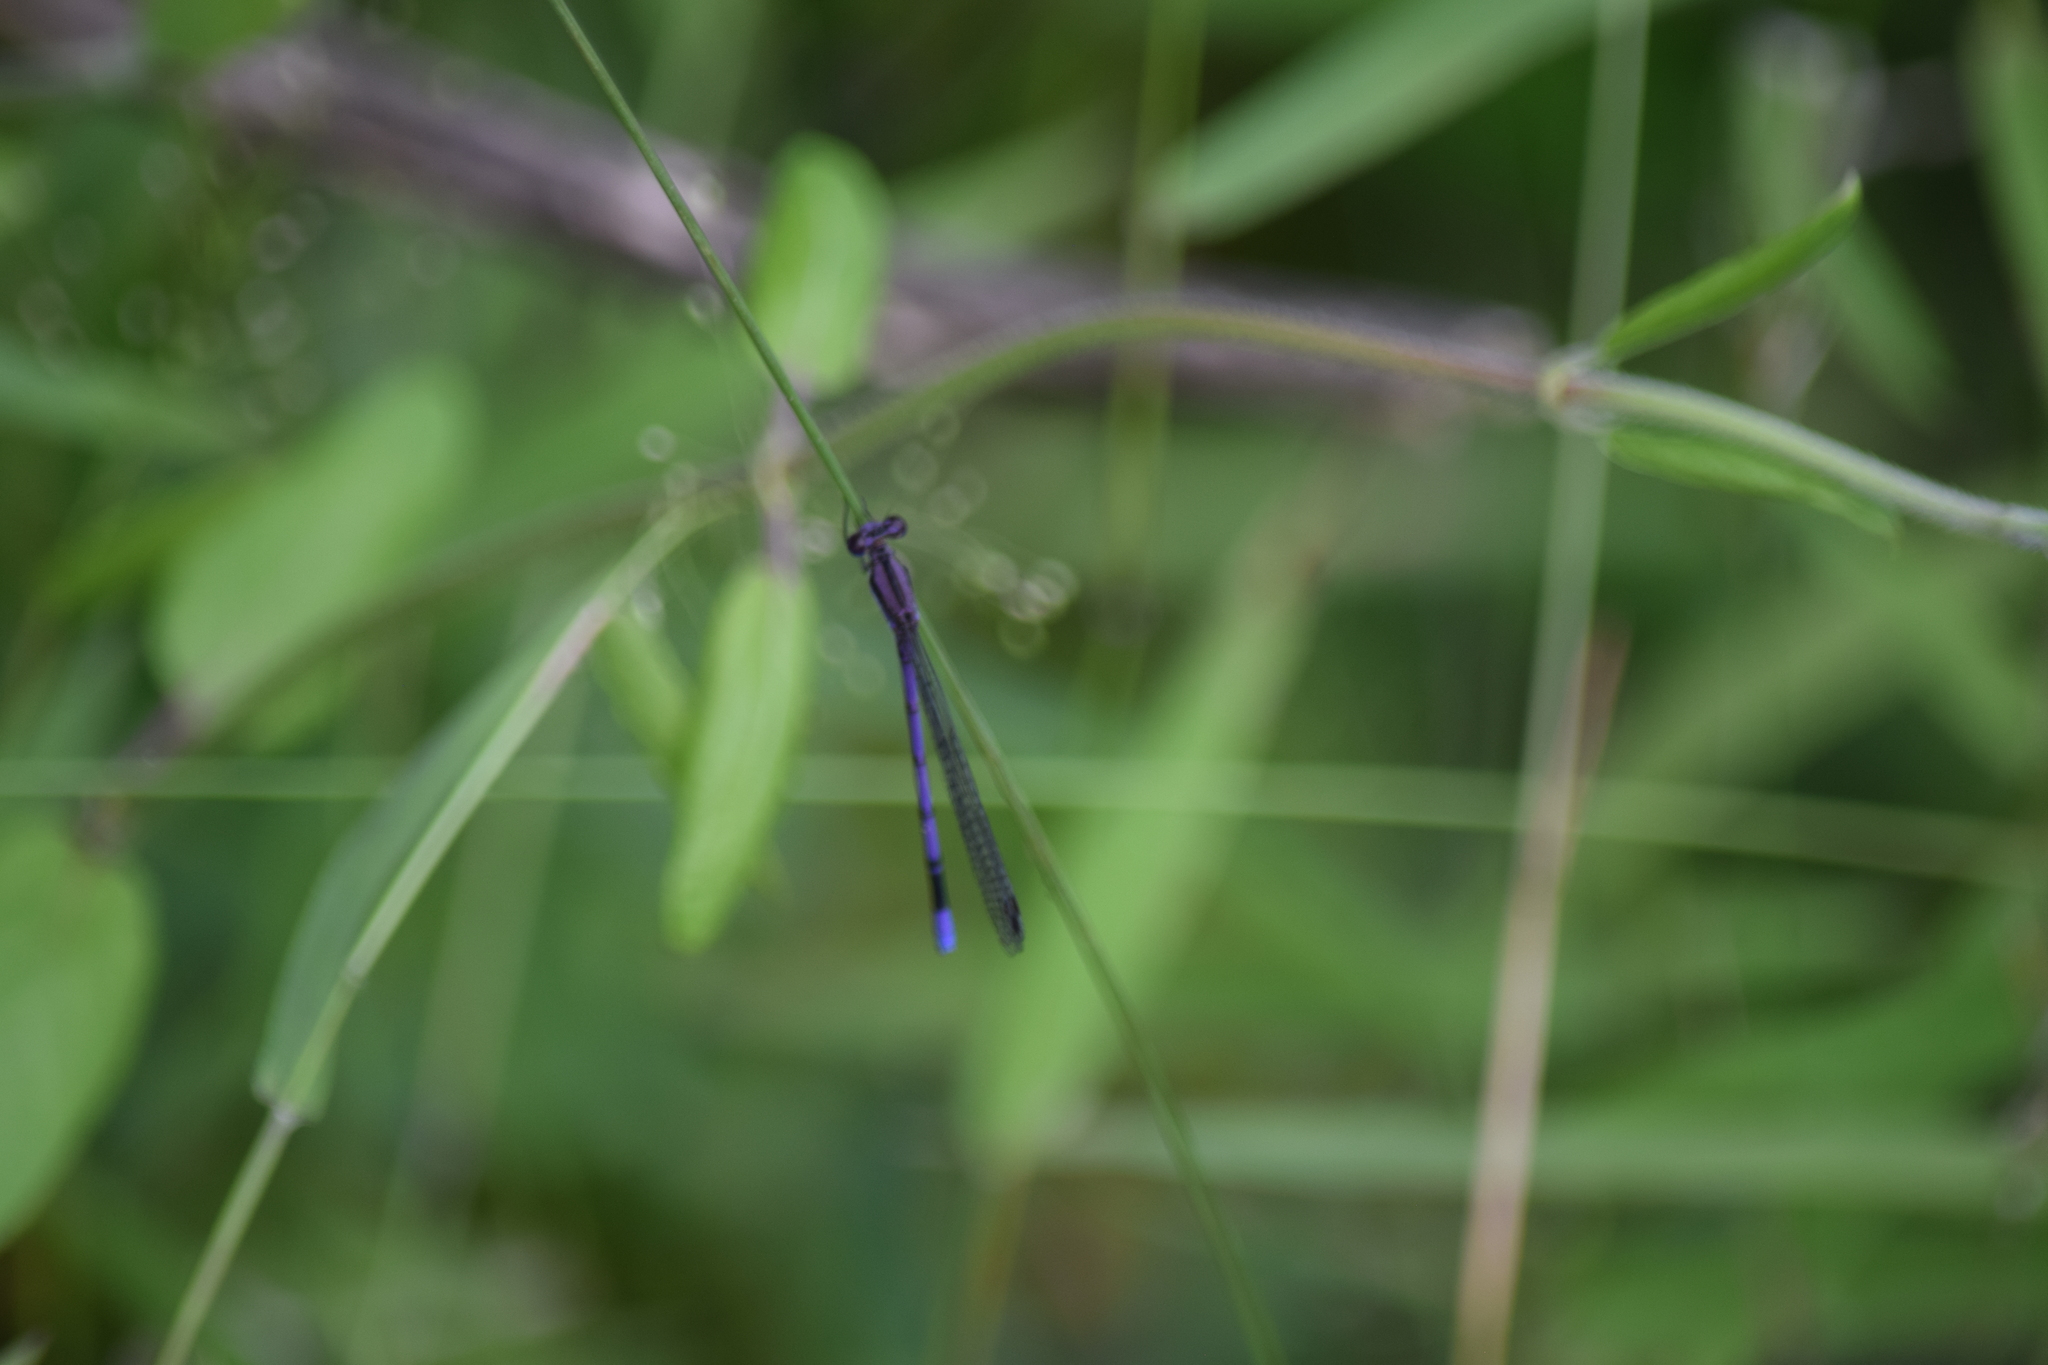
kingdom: Animalia
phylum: Arthropoda
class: Insecta
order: Odonata
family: Coenagrionidae
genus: Argia
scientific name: Argia fumipennis
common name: Variable dancer
